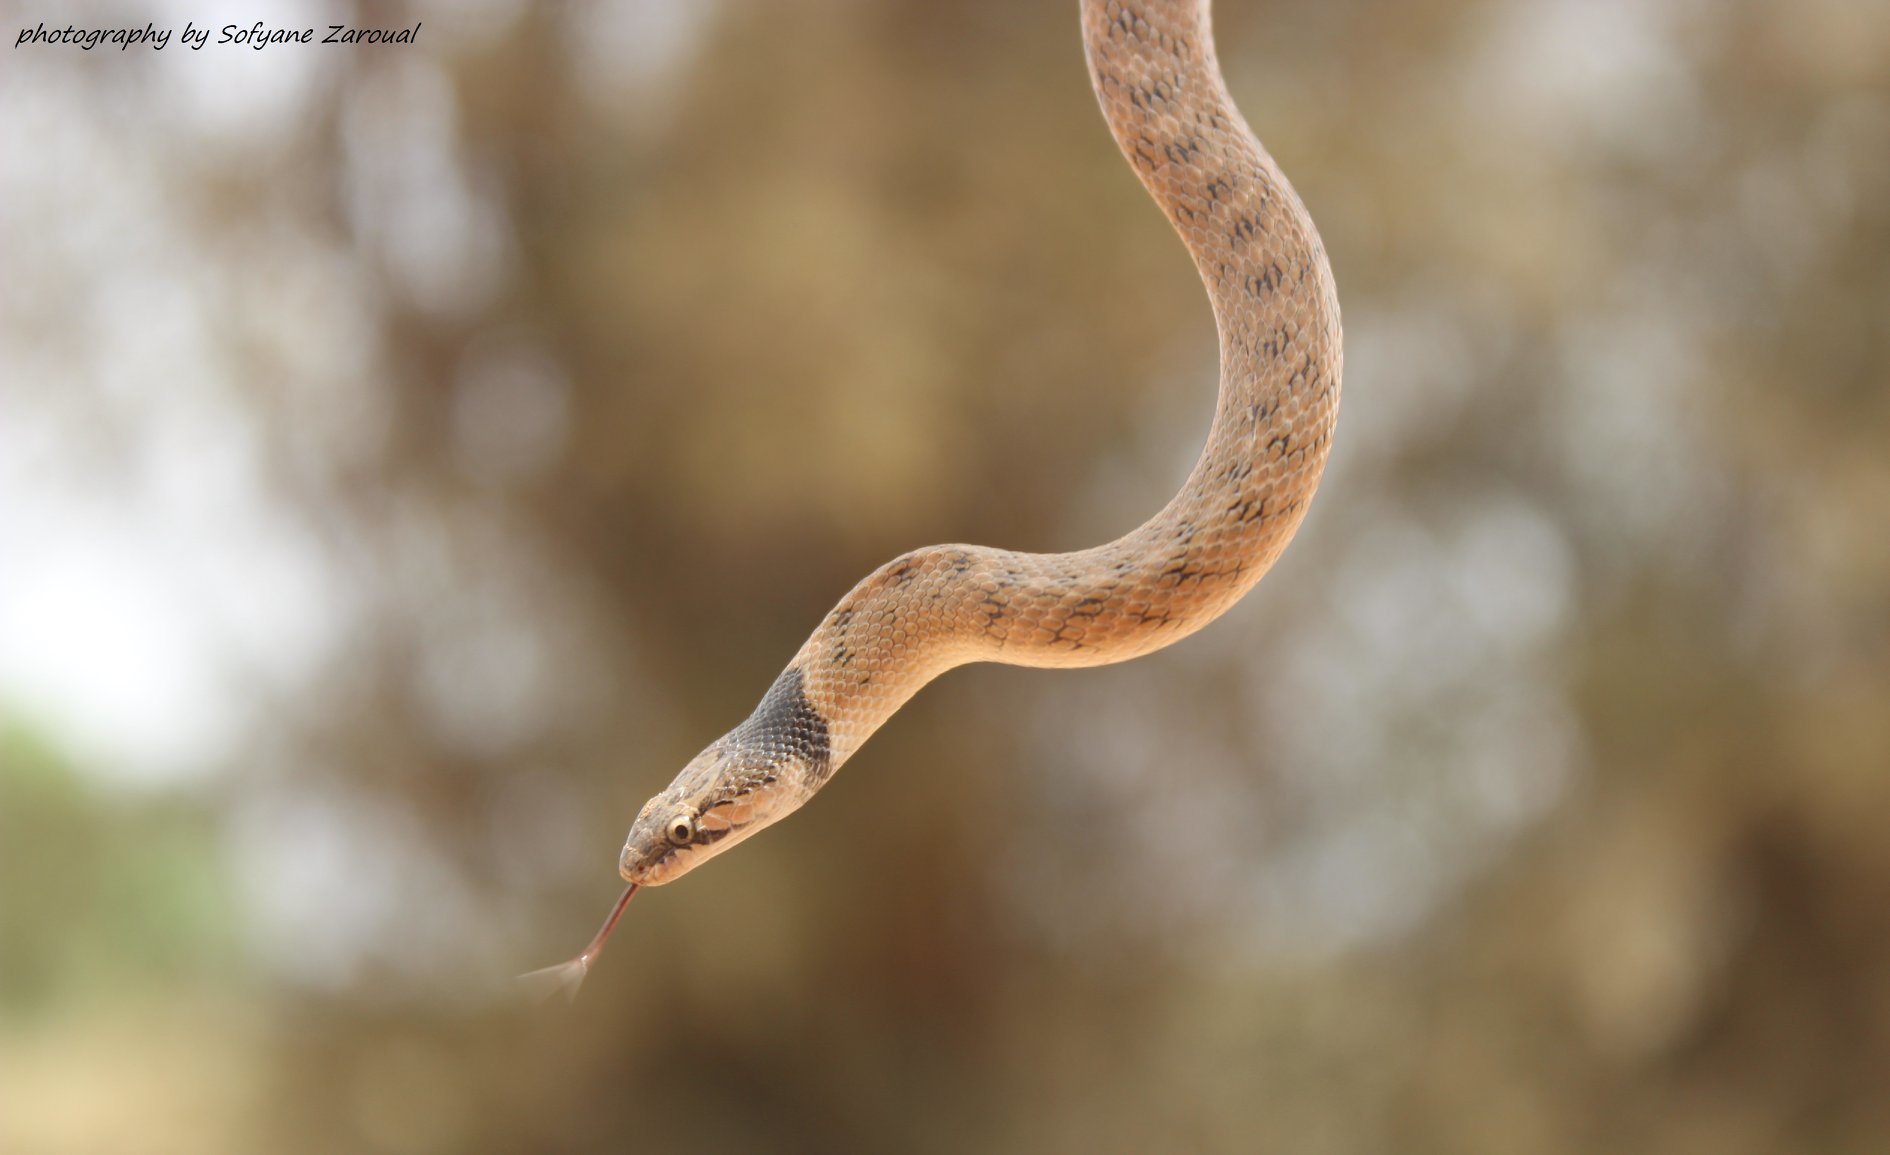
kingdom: Animalia
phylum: Chordata
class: Squamata
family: Colubridae
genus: Macroprotodon
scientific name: Macroprotodon brevis
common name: Iberian false smooth snake
